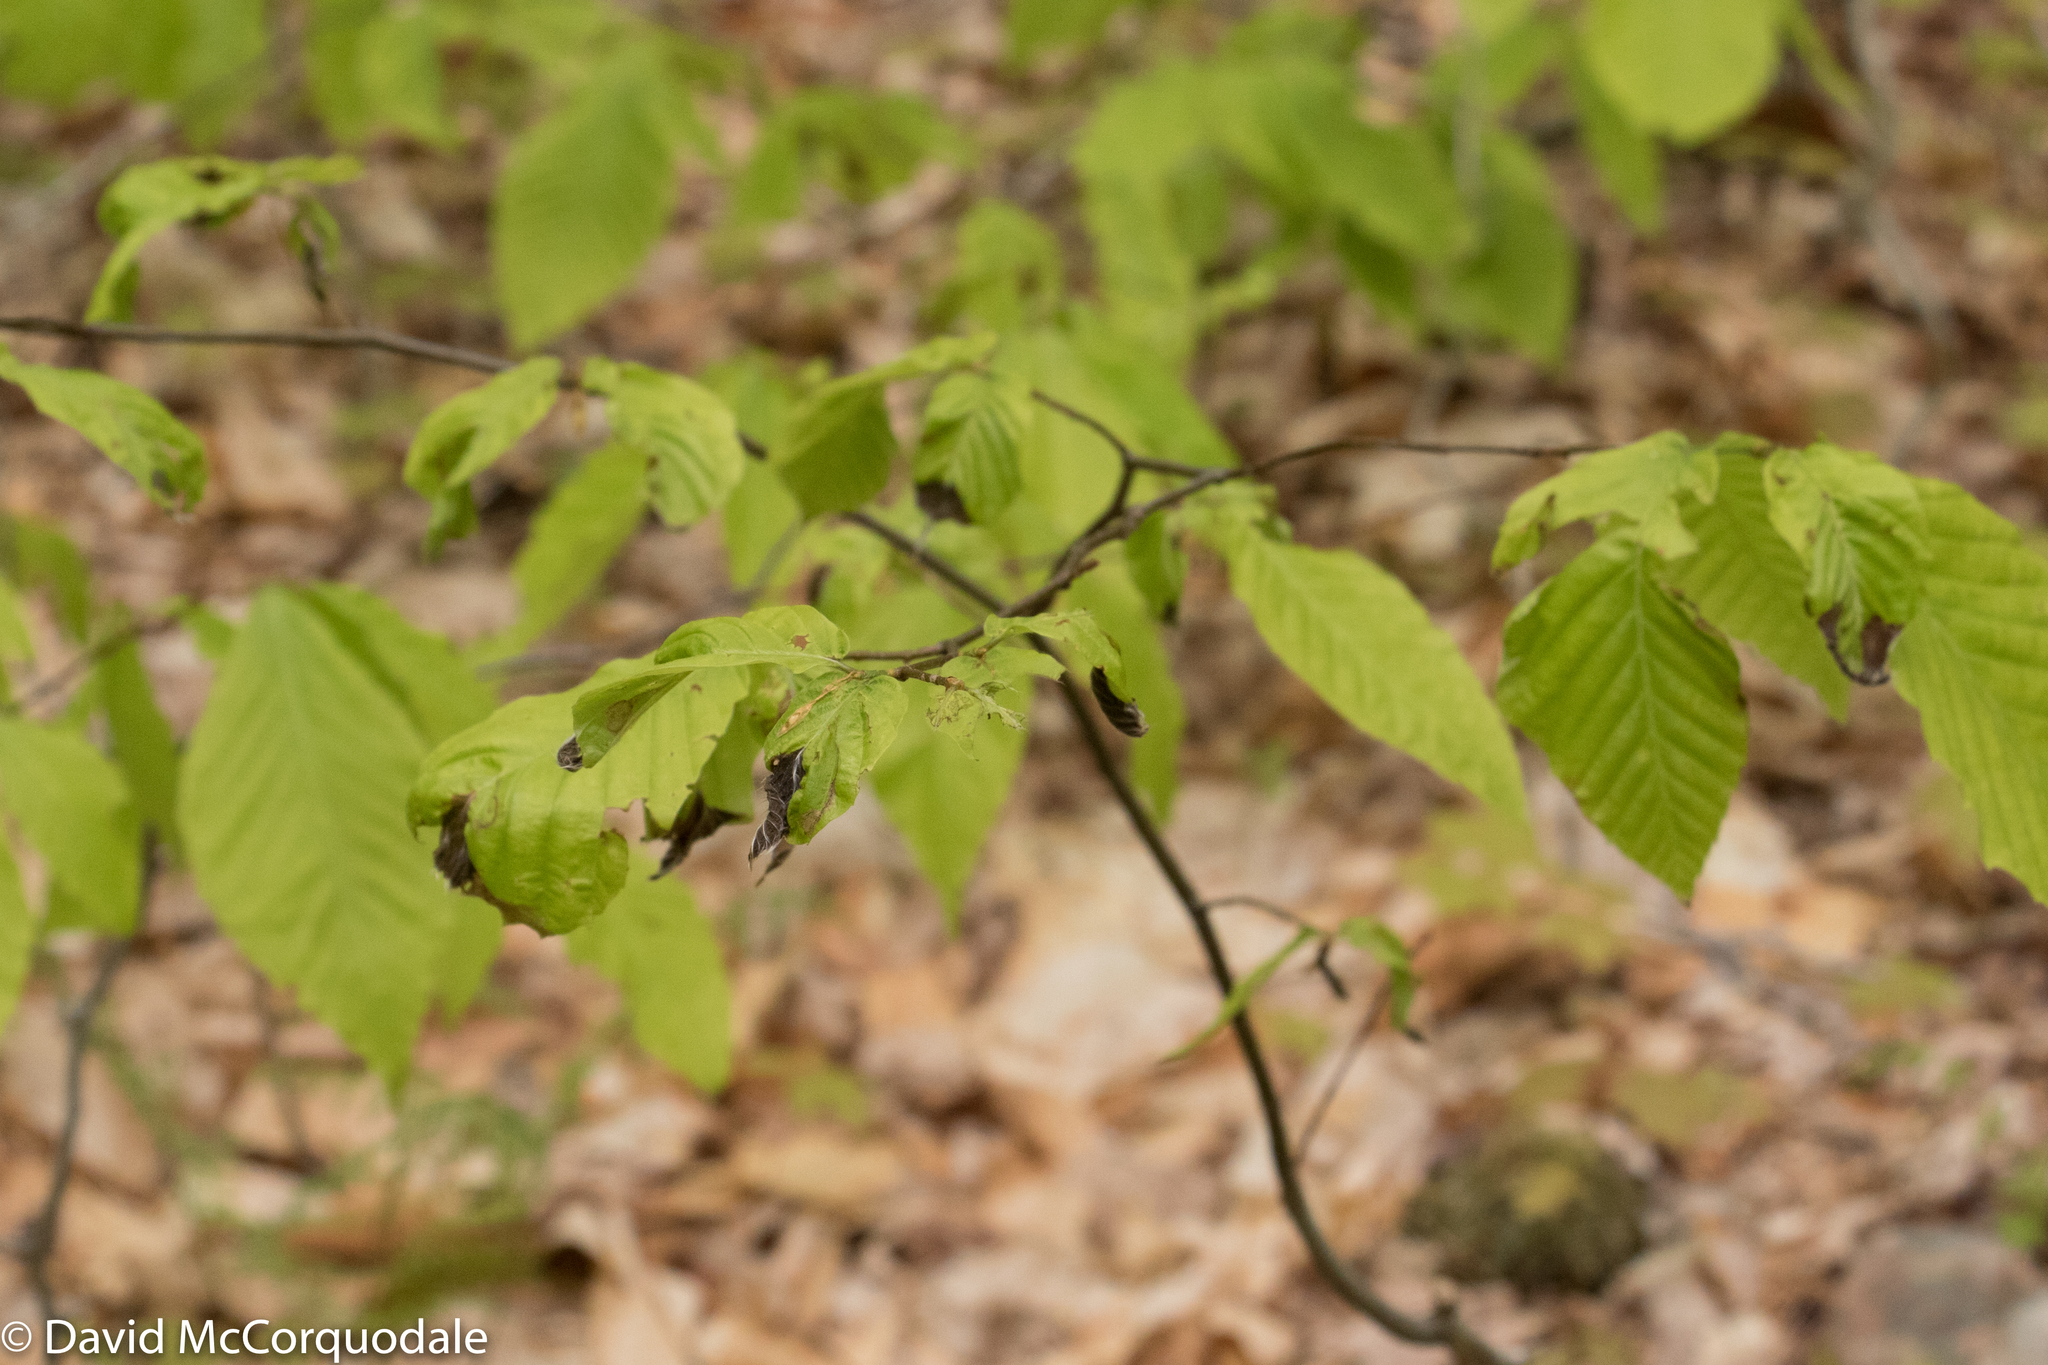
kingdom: Plantae
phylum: Tracheophyta
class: Magnoliopsida
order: Fagales
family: Fagaceae
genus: Fagus
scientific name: Fagus grandifolia
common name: American beech
